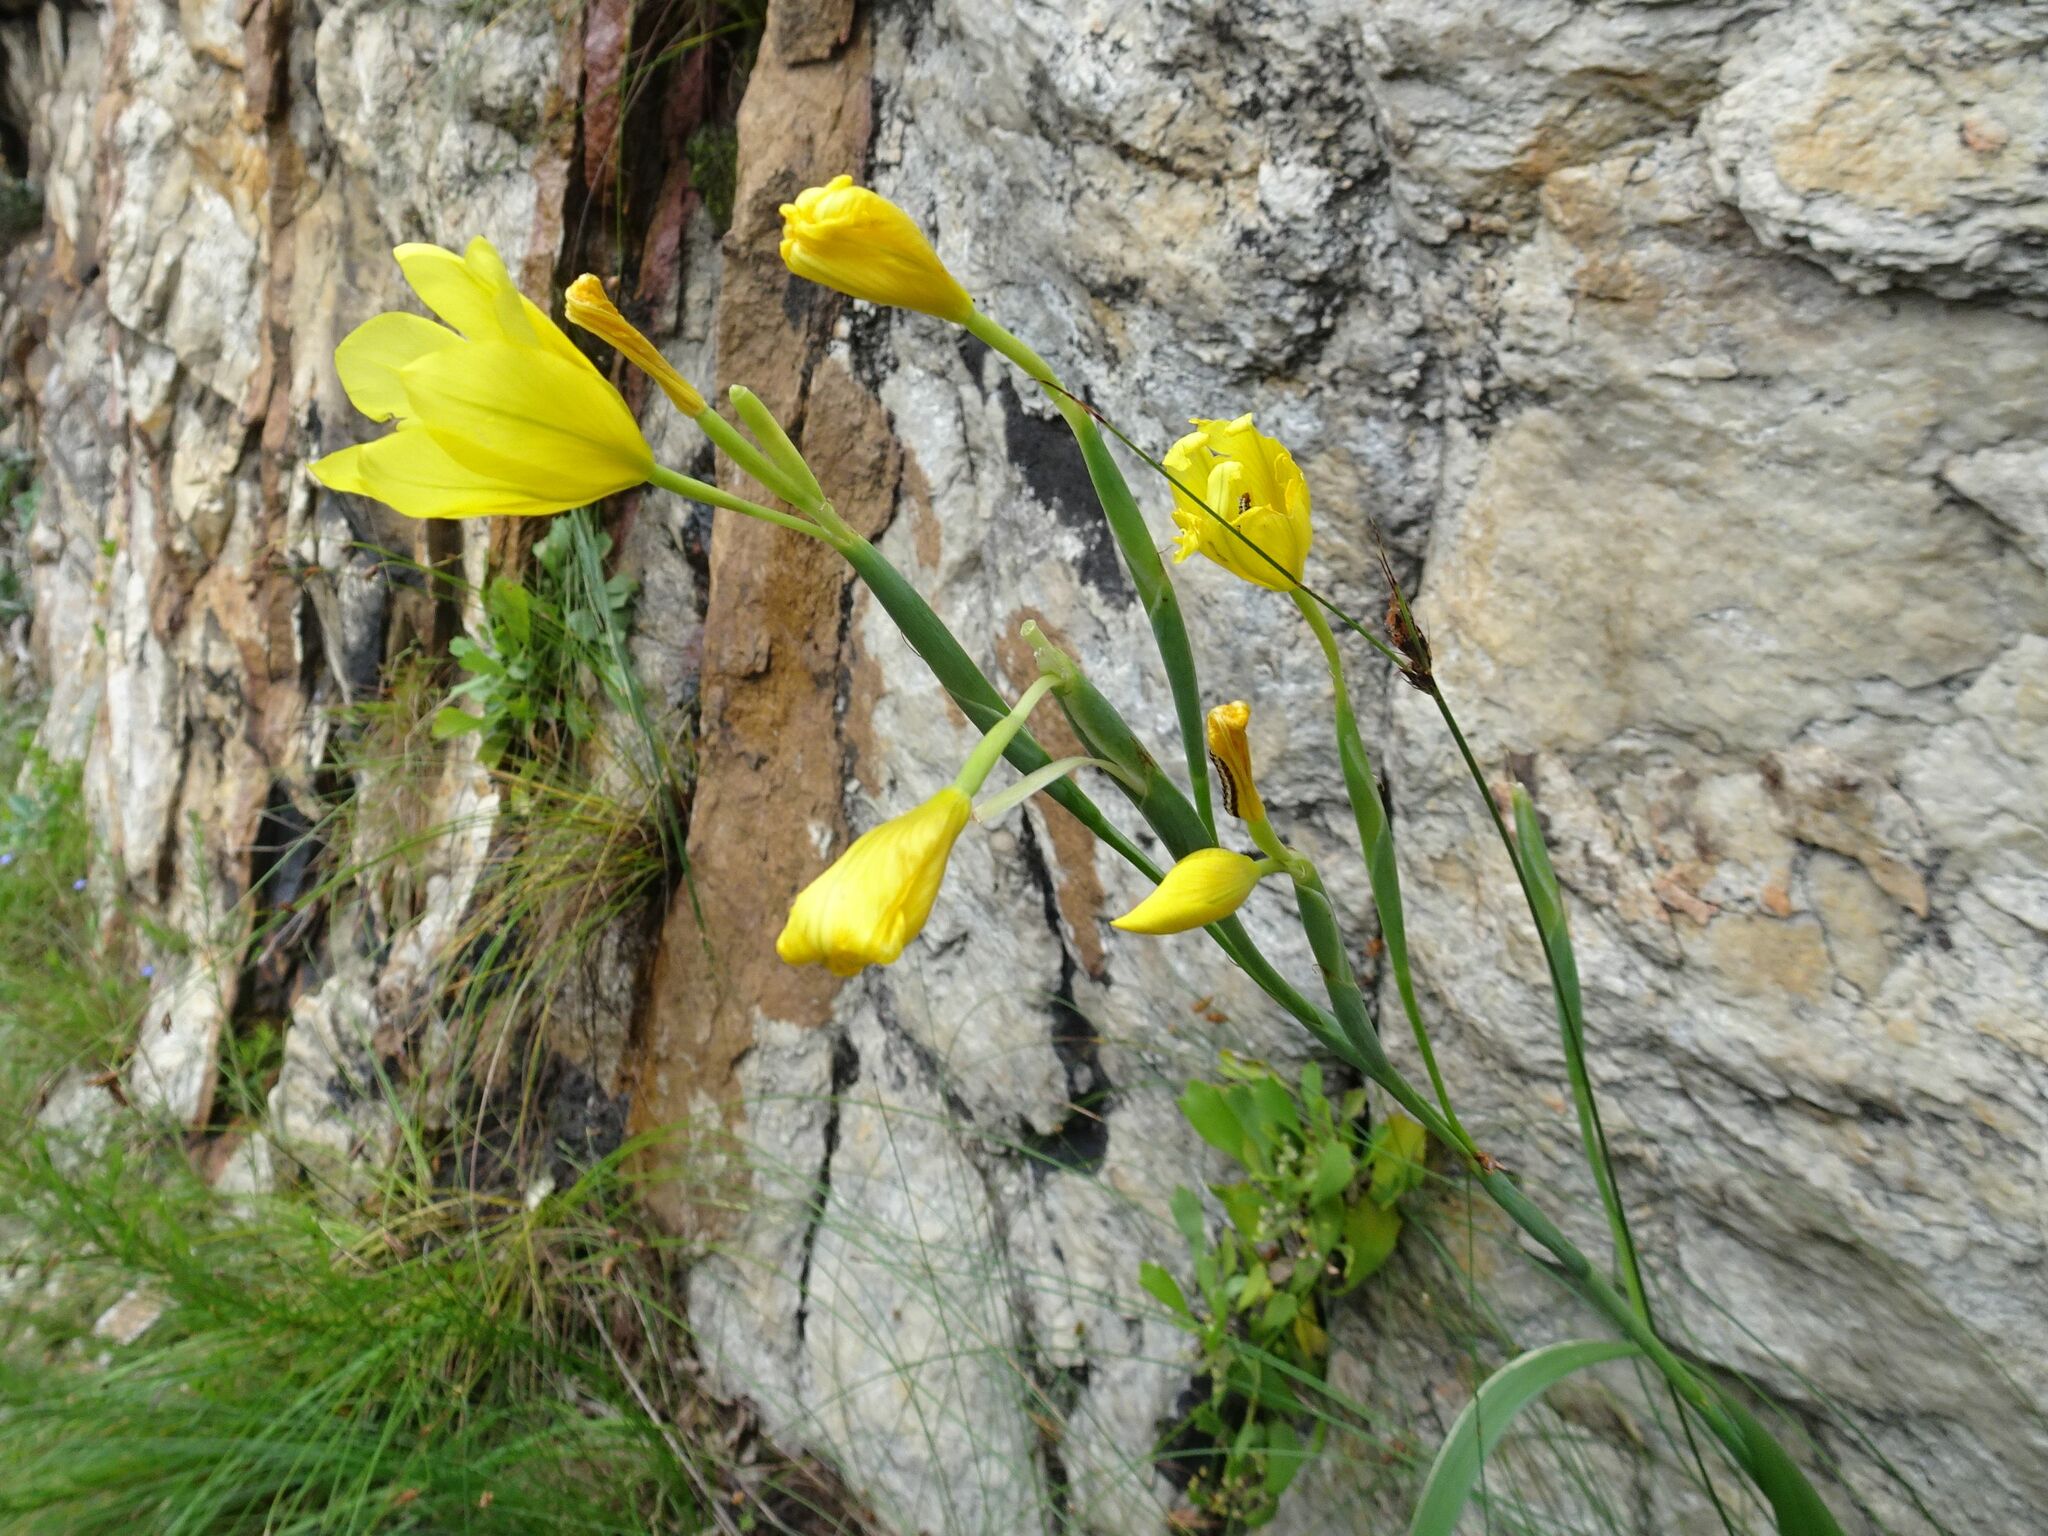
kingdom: Plantae
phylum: Tracheophyta
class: Liliopsida
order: Asparagales
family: Iridaceae
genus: Moraea
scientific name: Moraea ochroleuca
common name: Red tulp
